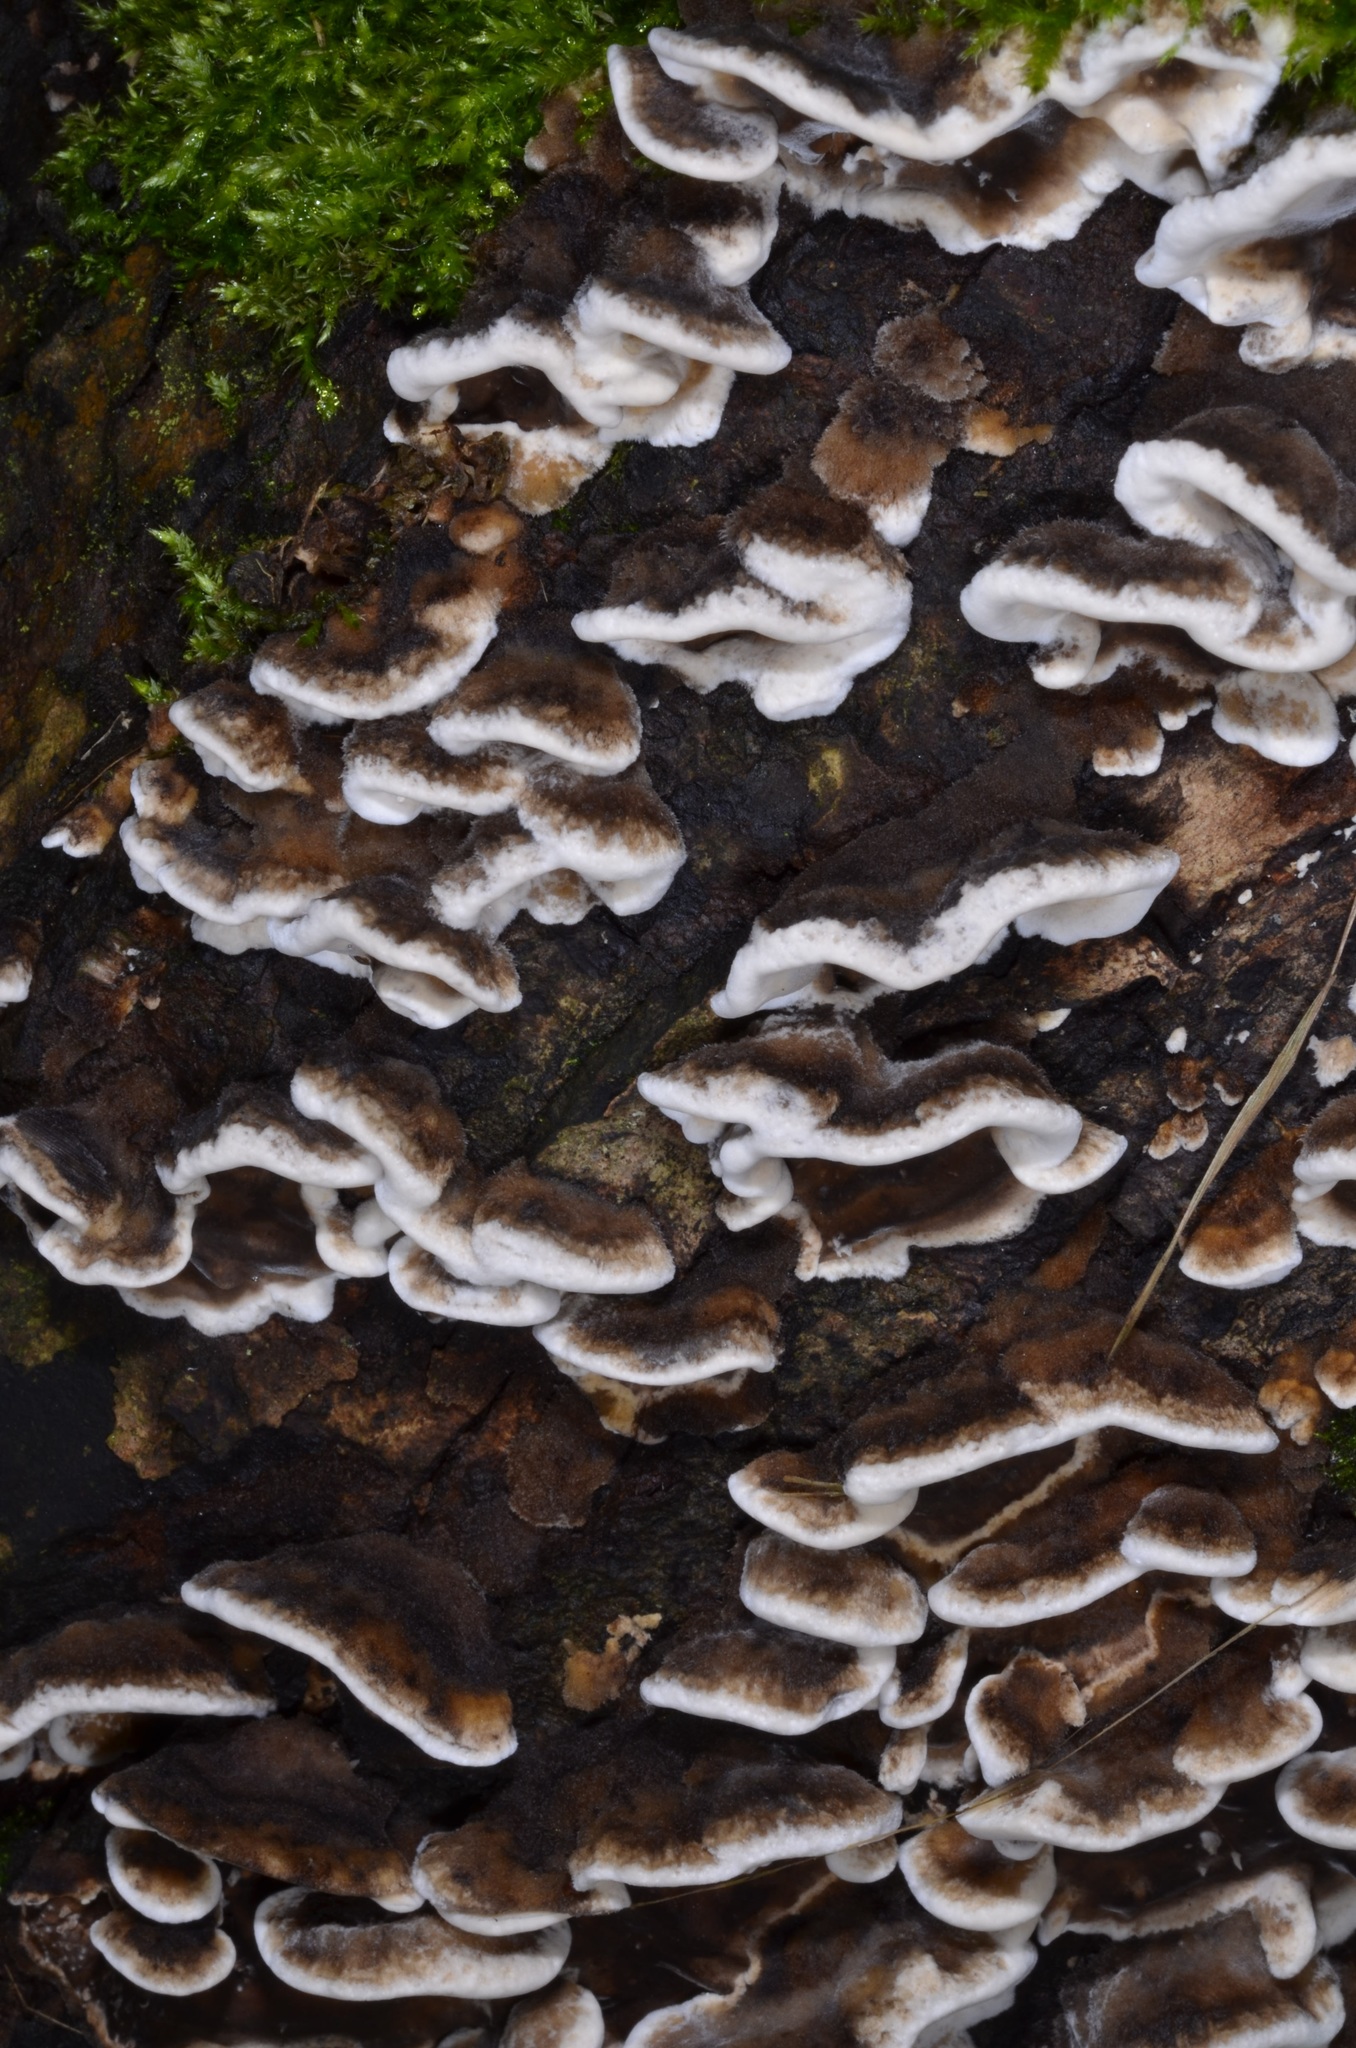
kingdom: Fungi
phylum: Basidiomycota
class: Agaricomycetes
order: Polyporales
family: Phanerochaetaceae
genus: Bjerkandera
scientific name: Bjerkandera adusta
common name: Smoky bracket
